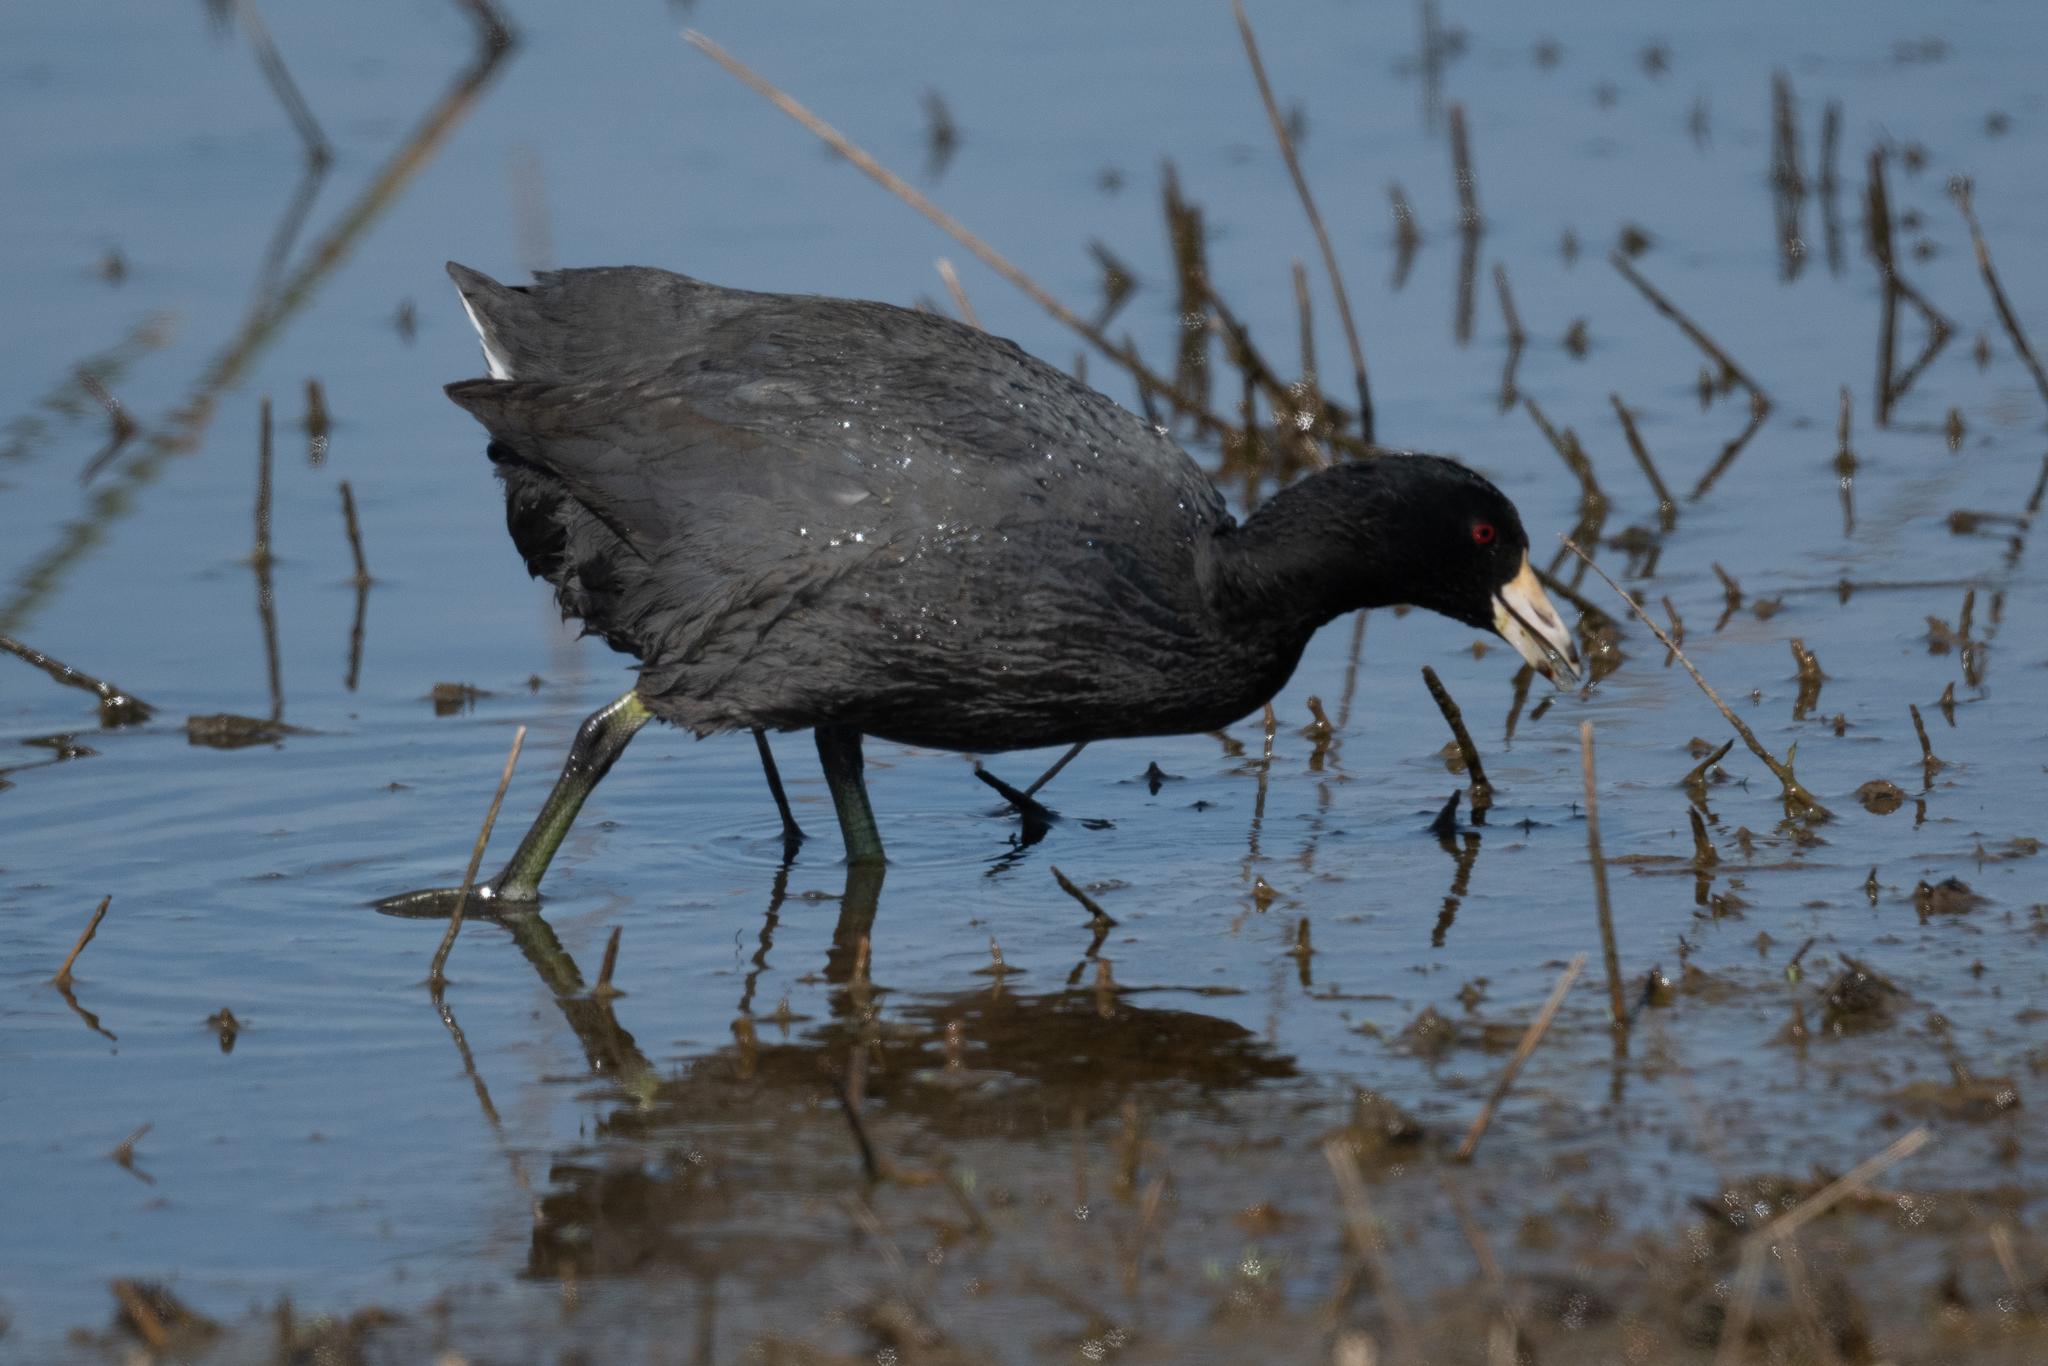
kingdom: Animalia
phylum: Chordata
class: Aves
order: Gruiformes
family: Rallidae
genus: Fulica
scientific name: Fulica americana
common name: American coot
